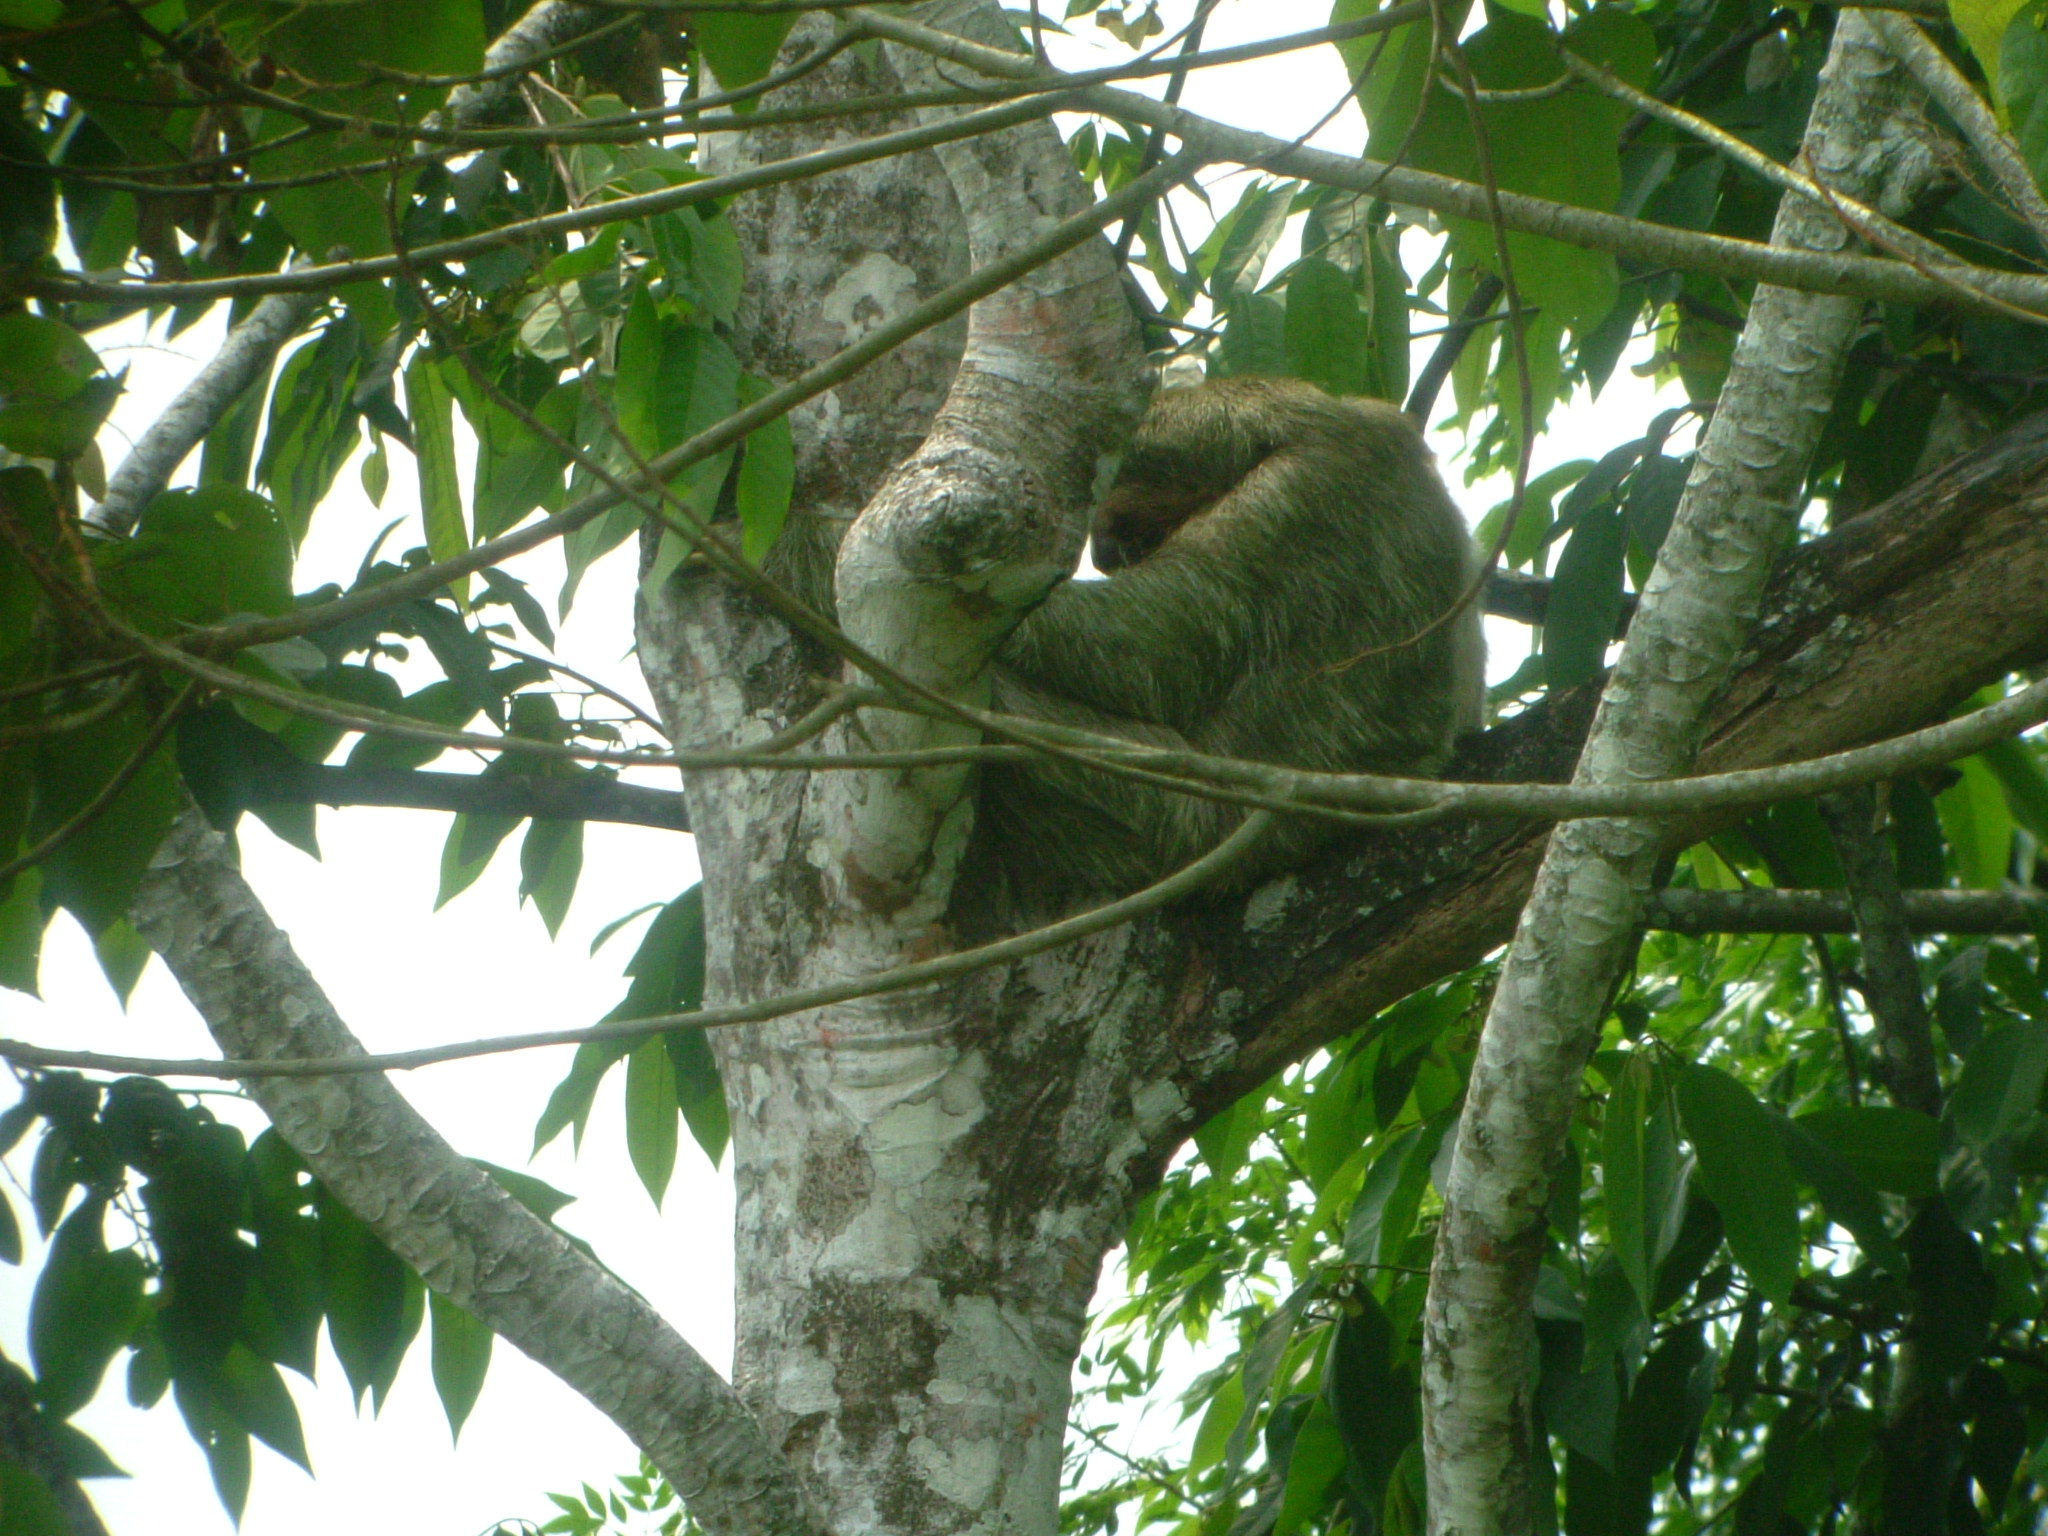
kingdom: Animalia
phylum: Chordata
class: Mammalia
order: Pilosa
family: Bradypodidae
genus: Bradypus
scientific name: Bradypus variegatus
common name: Brown-throated three-toed sloth
